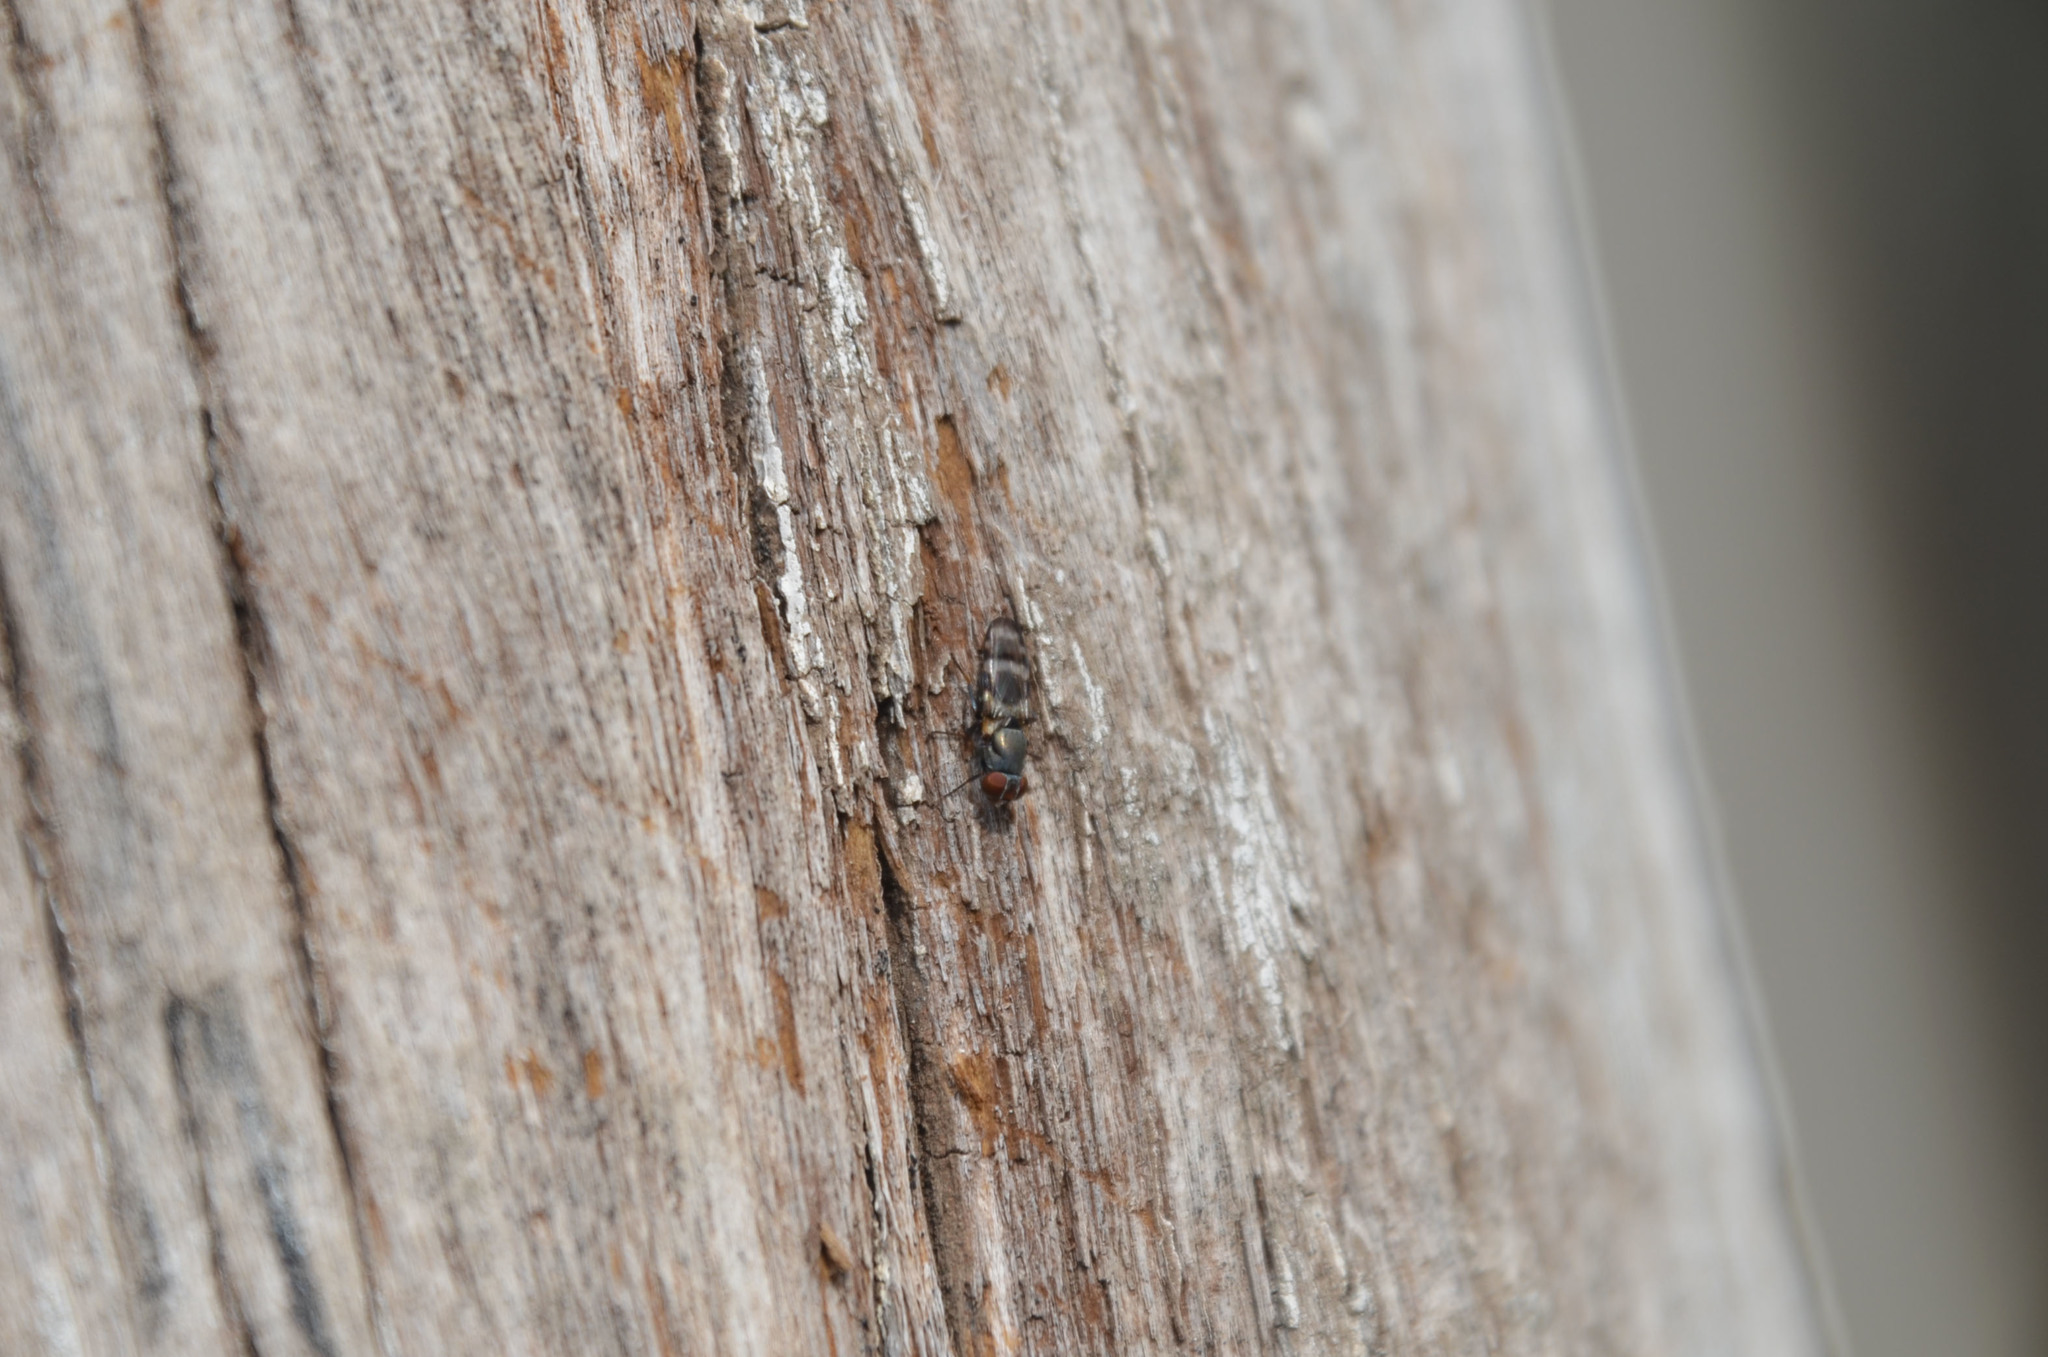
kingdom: Animalia
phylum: Arthropoda
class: Insecta
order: Diptera
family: Ulidiidae
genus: Euxesta
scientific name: Euxesta eluta
